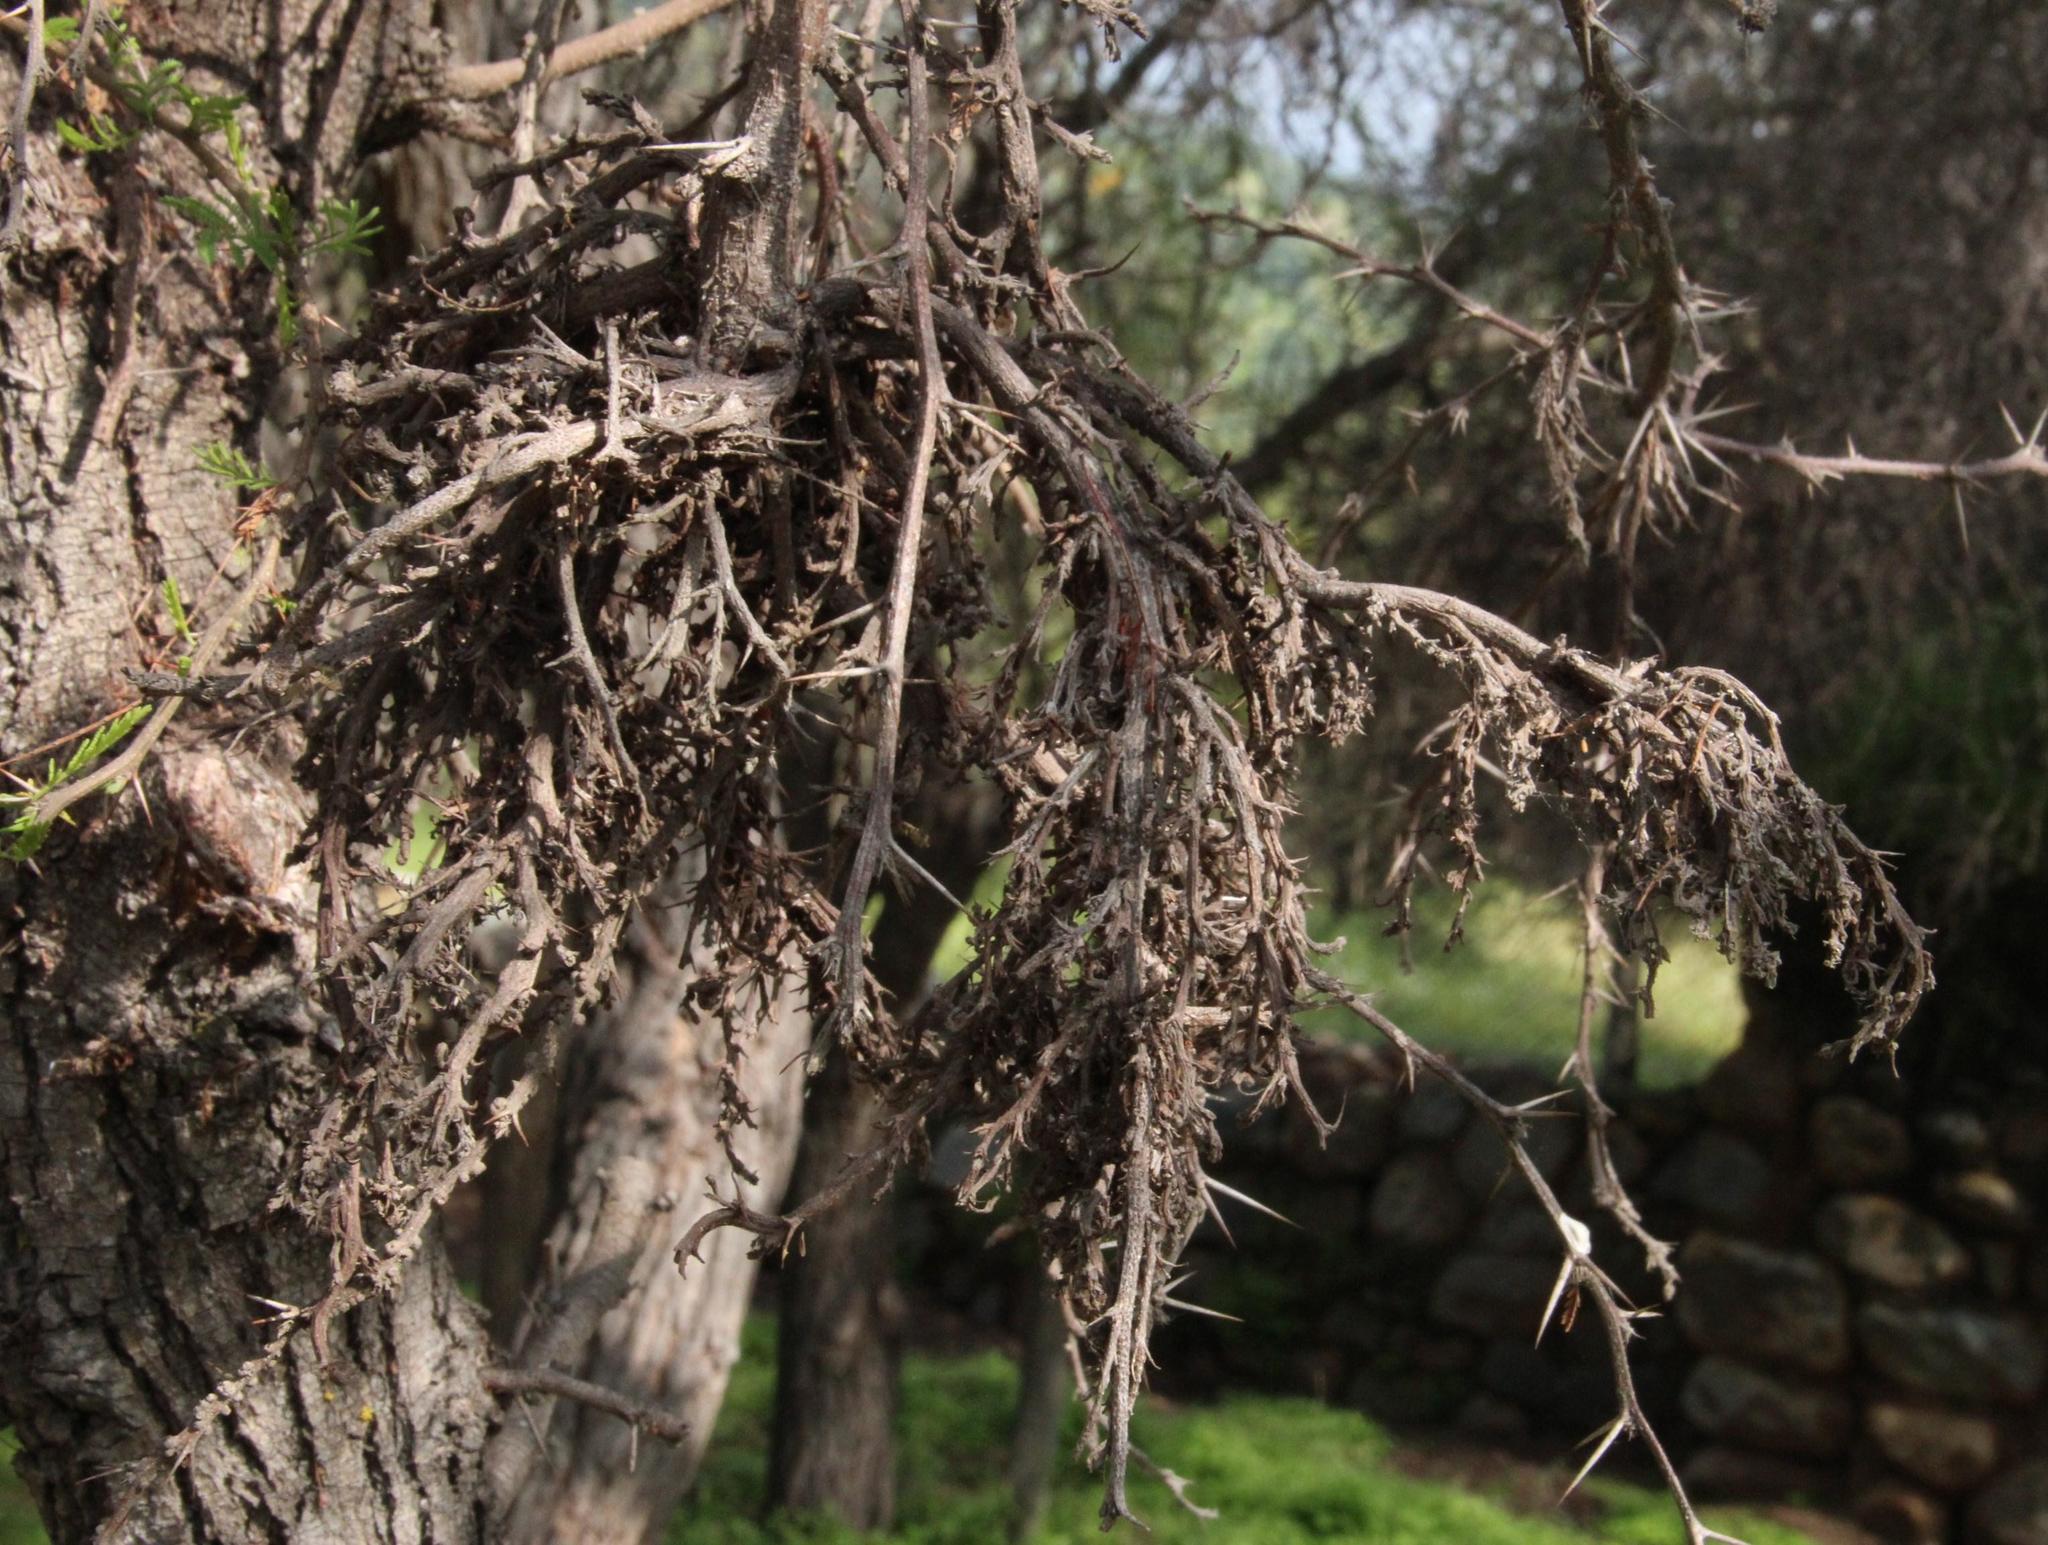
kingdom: Fungi
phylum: Basidiomycota
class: Pucciniomycetes
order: Pucciniales
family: Raveneliaceae
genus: Ravenelia
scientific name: Ravenelia hieronymi
